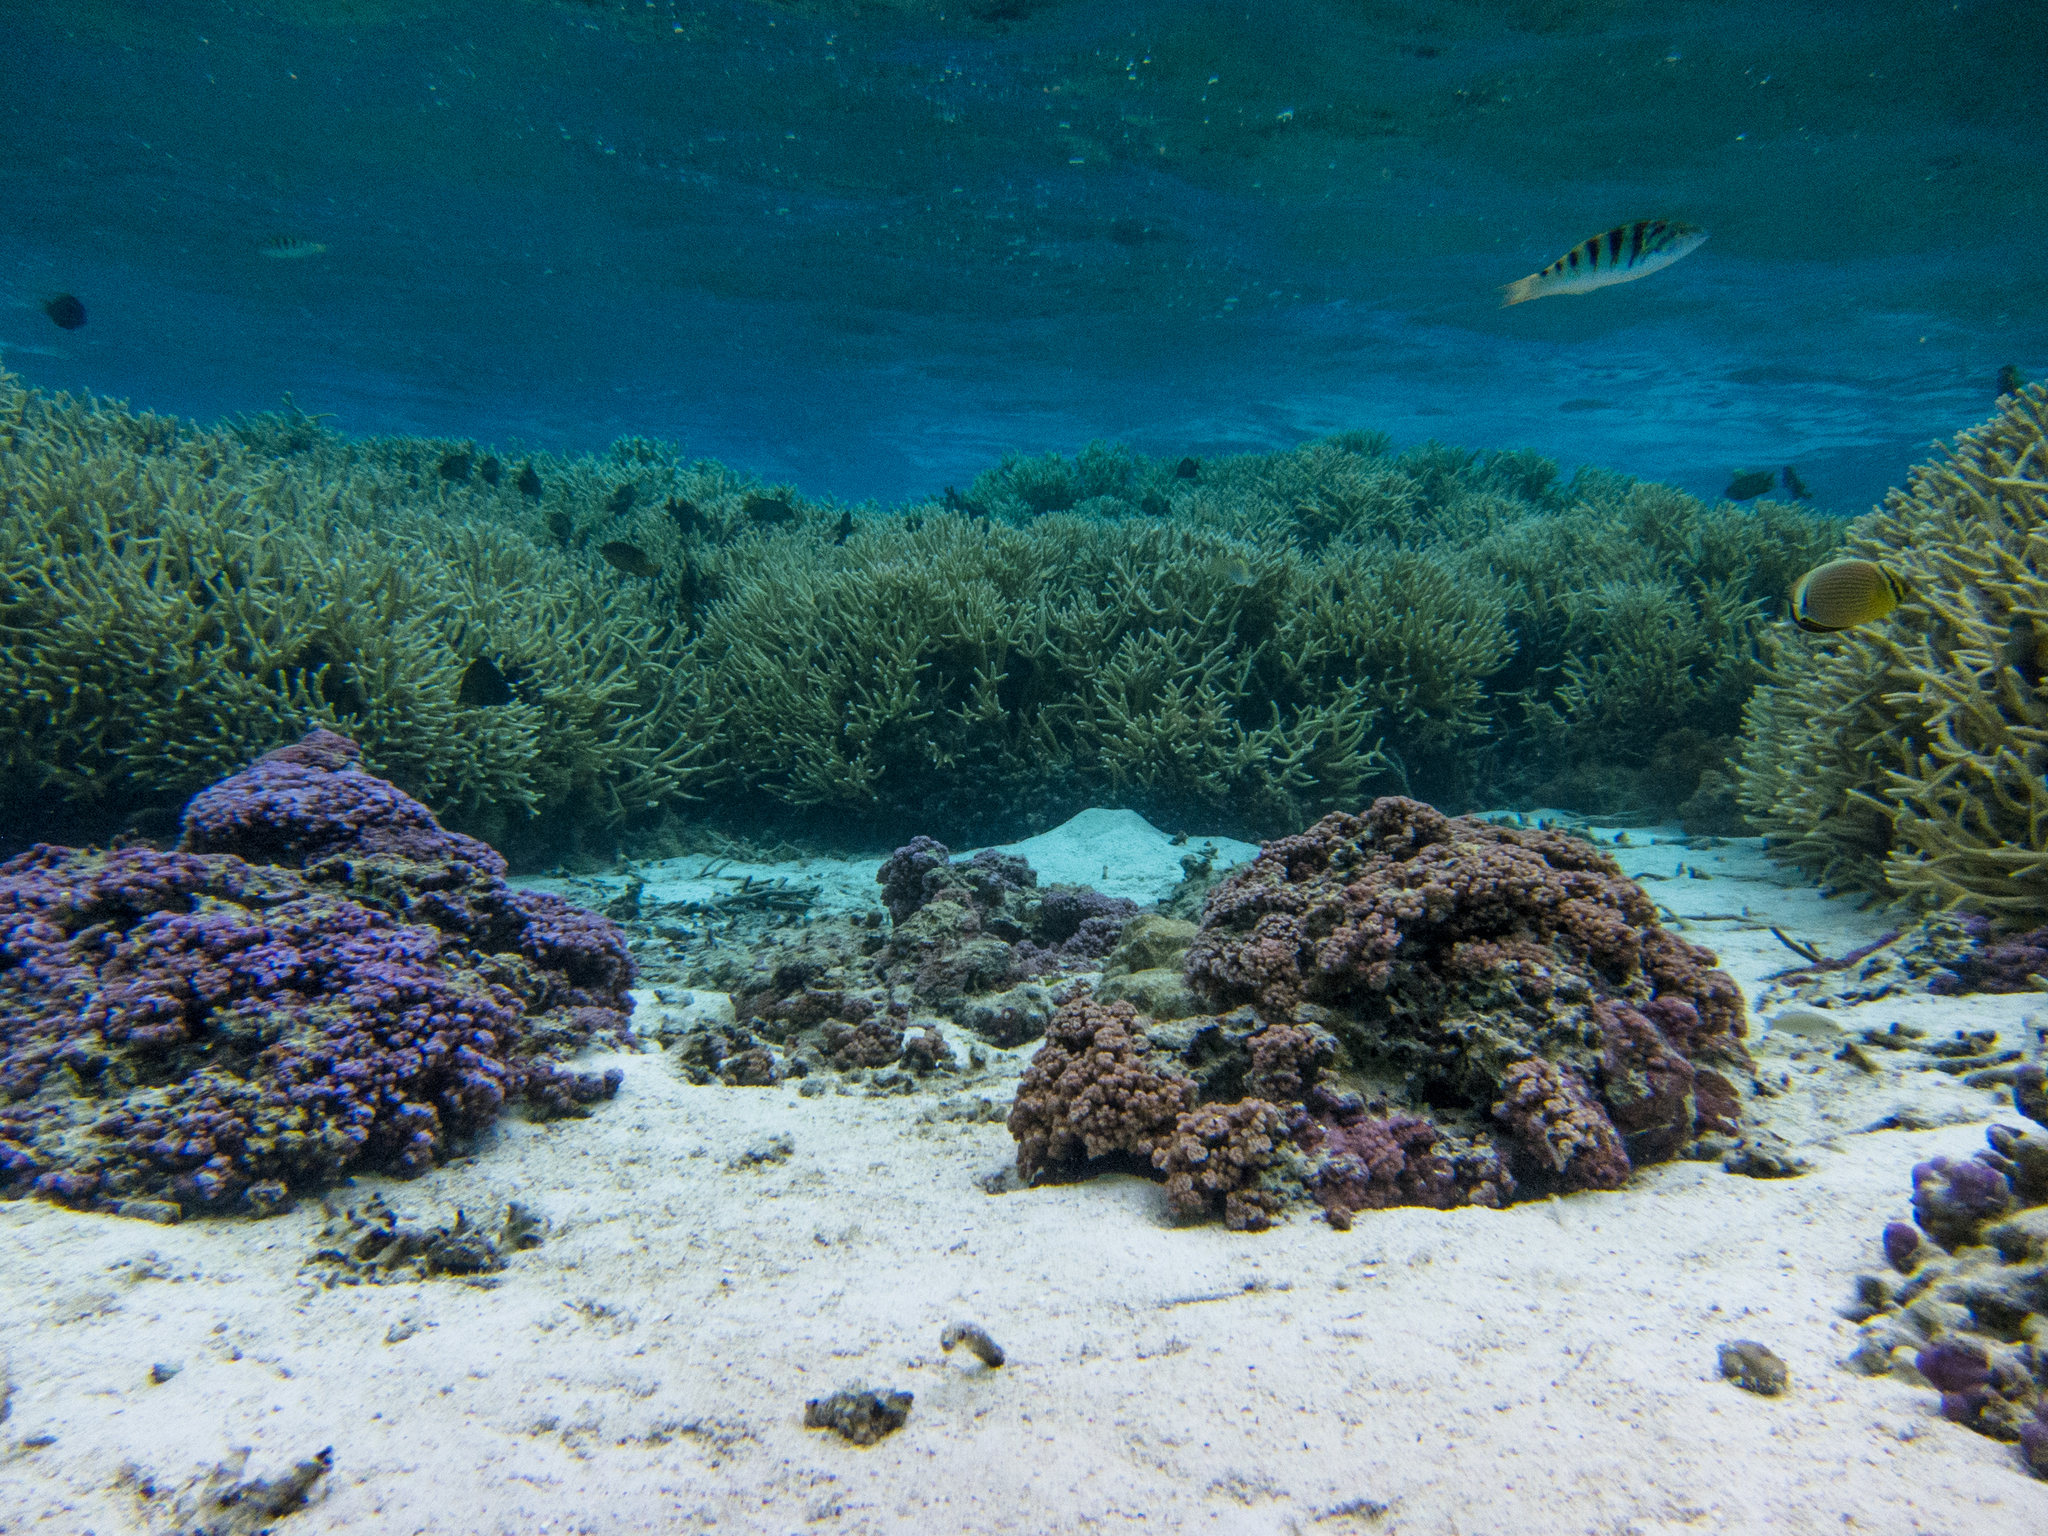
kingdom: Animalia
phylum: Chordata
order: Perciformes
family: Chaetodontidae
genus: Chaetodon
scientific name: Chaetodon lunulatus
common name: Redfin butterflyfish
